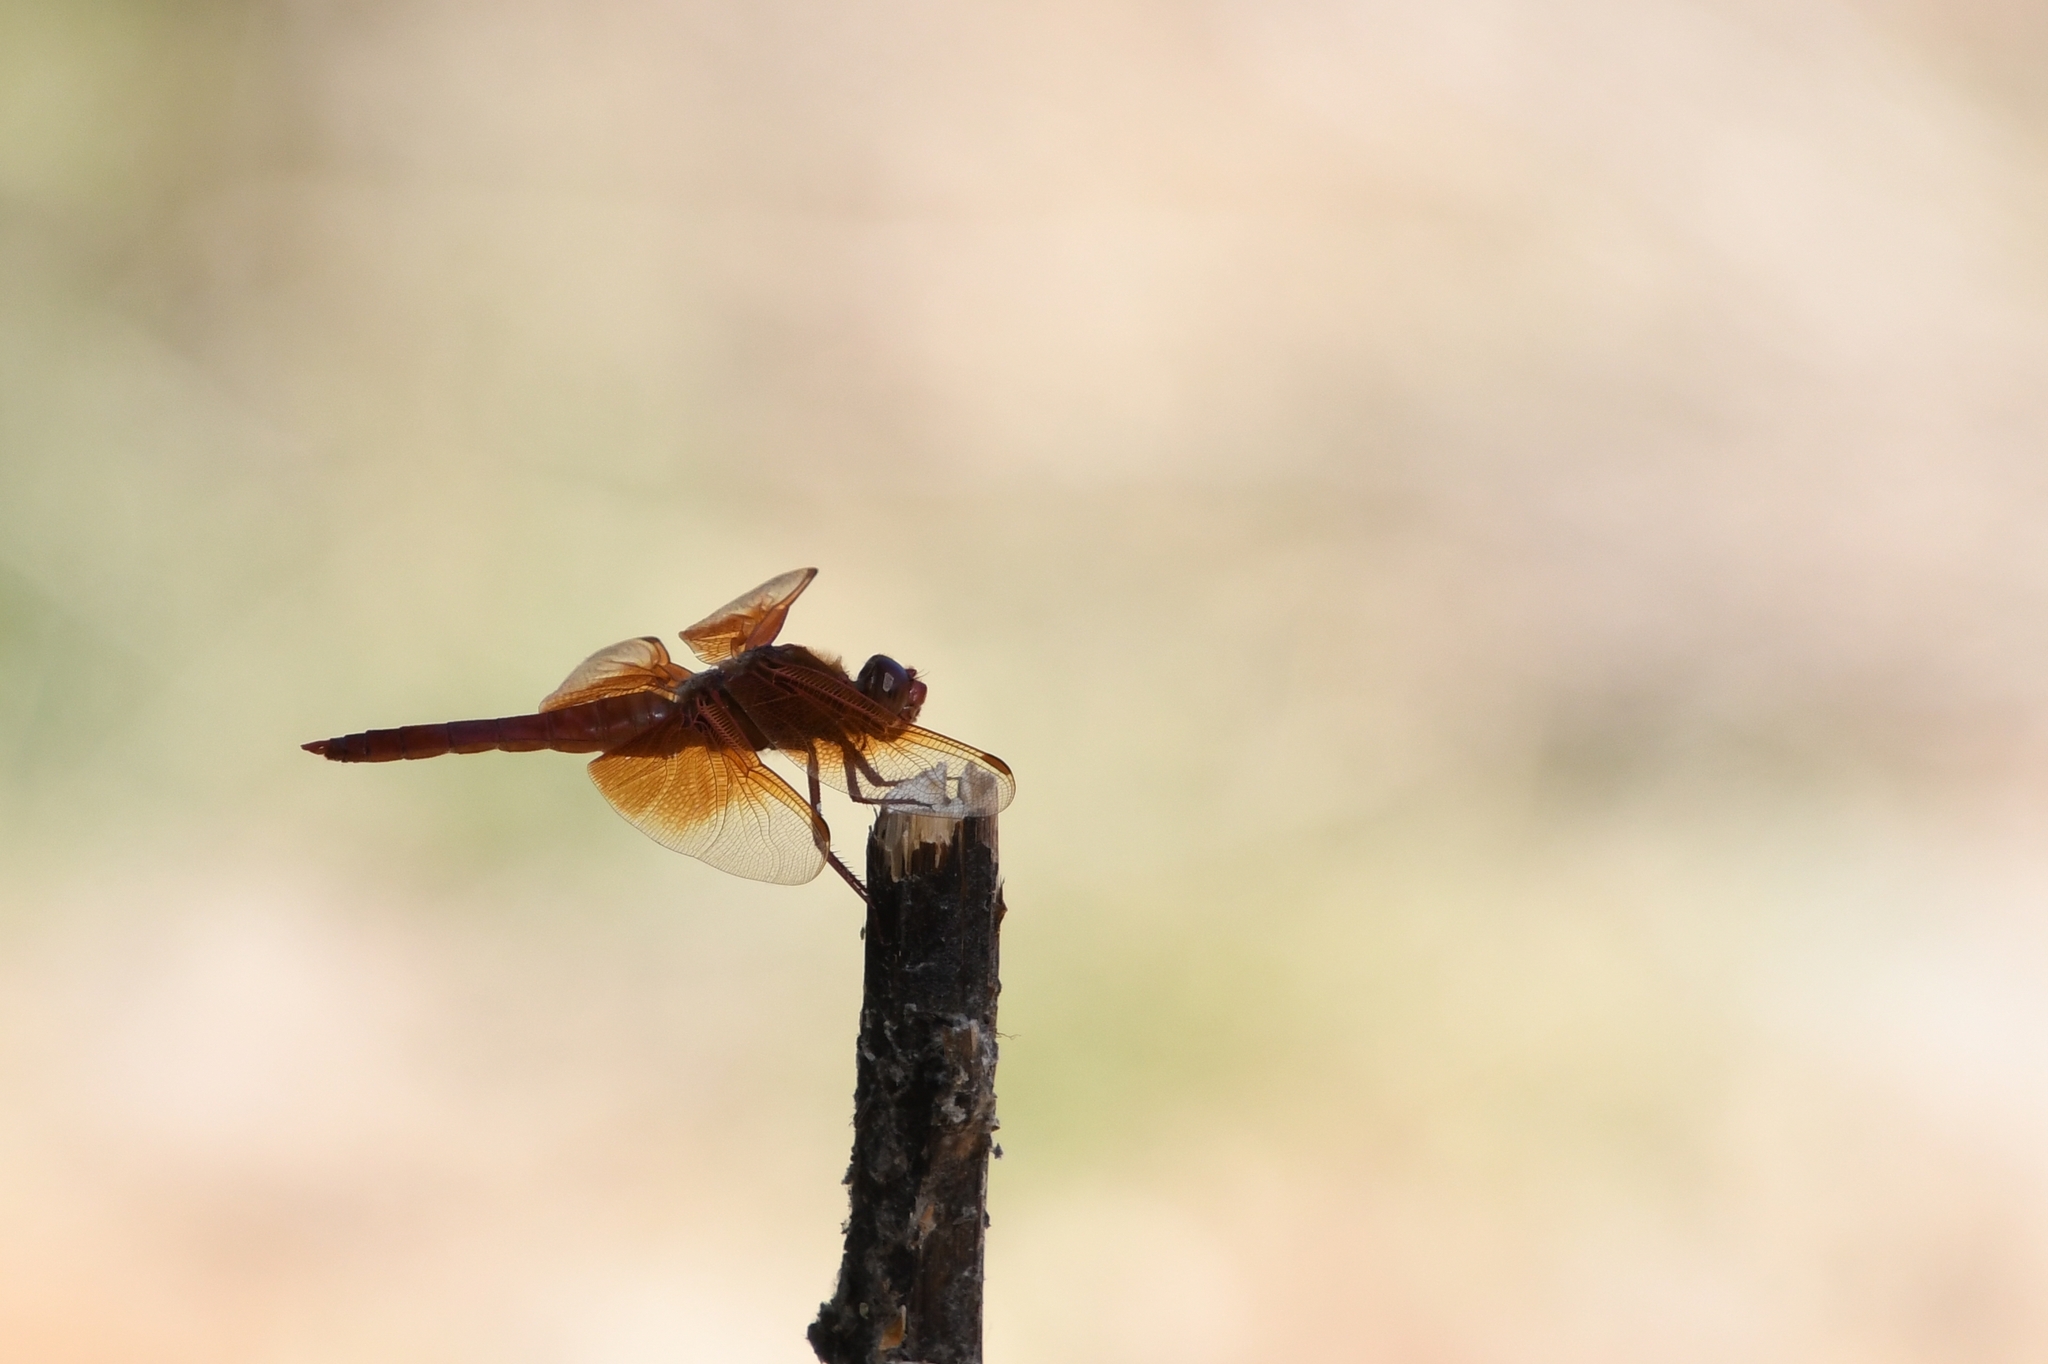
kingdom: Animalia
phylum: Arthropoda
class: Insecta
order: Odonata
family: Libellulidae
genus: Libellula
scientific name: Libellula saturata
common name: Flame skimmer
